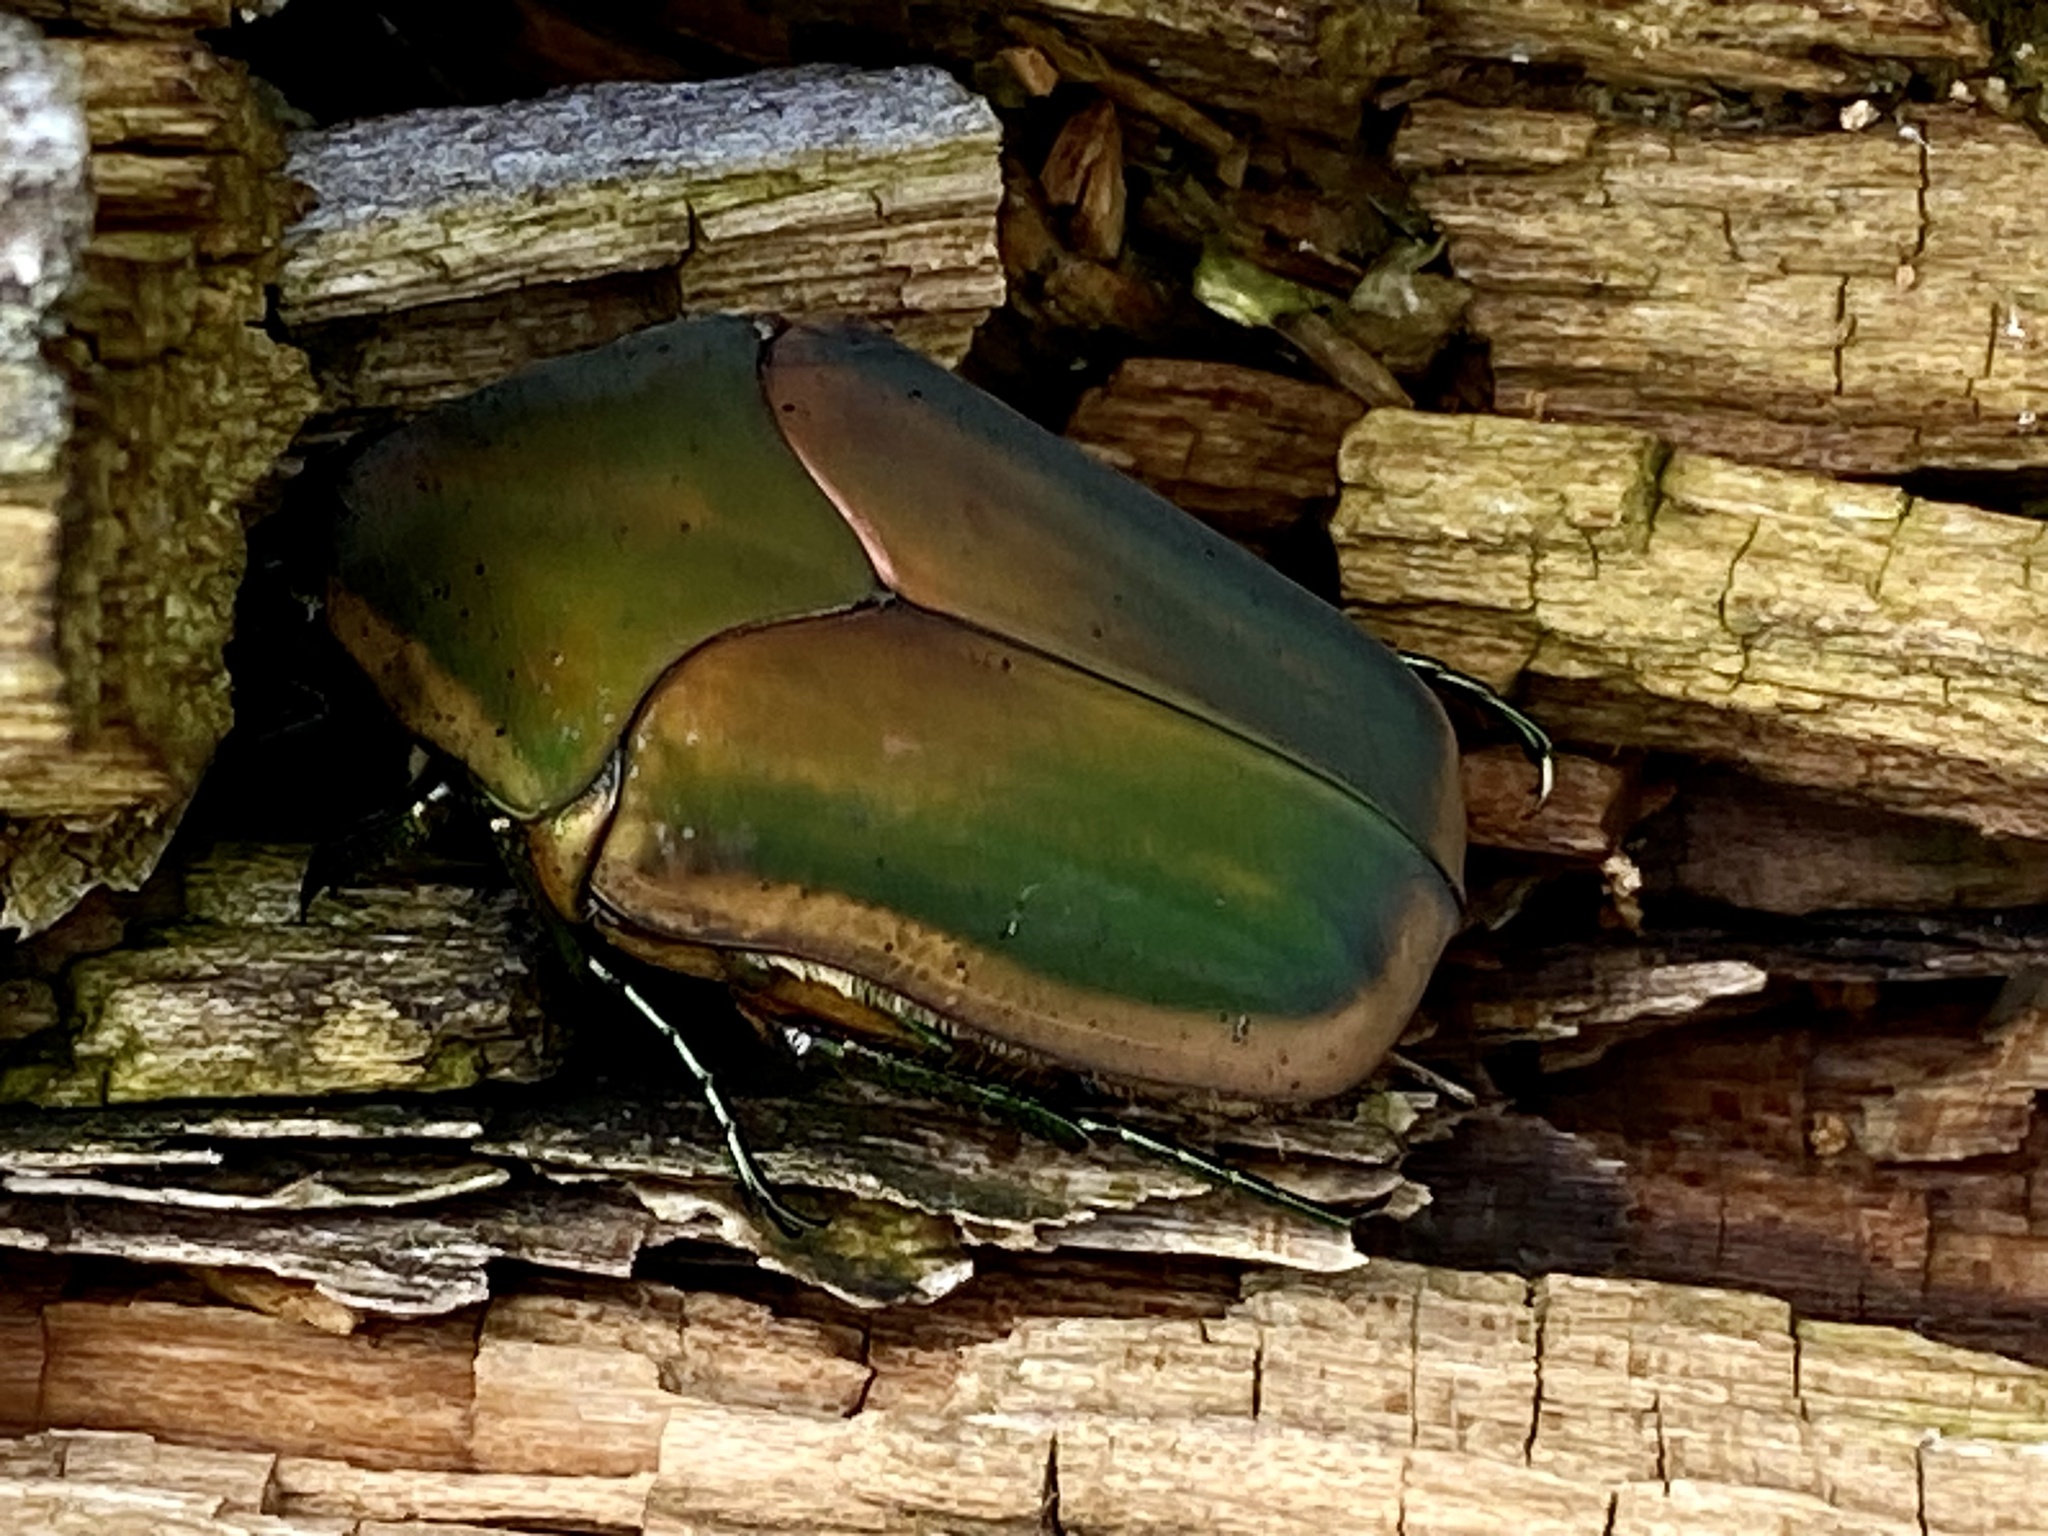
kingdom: Animalia
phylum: Arthropoda
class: Insecta
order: Coleoptera
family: Scarabaeidae
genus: Cotinis
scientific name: Cotinis nitida
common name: Common green june beetle
